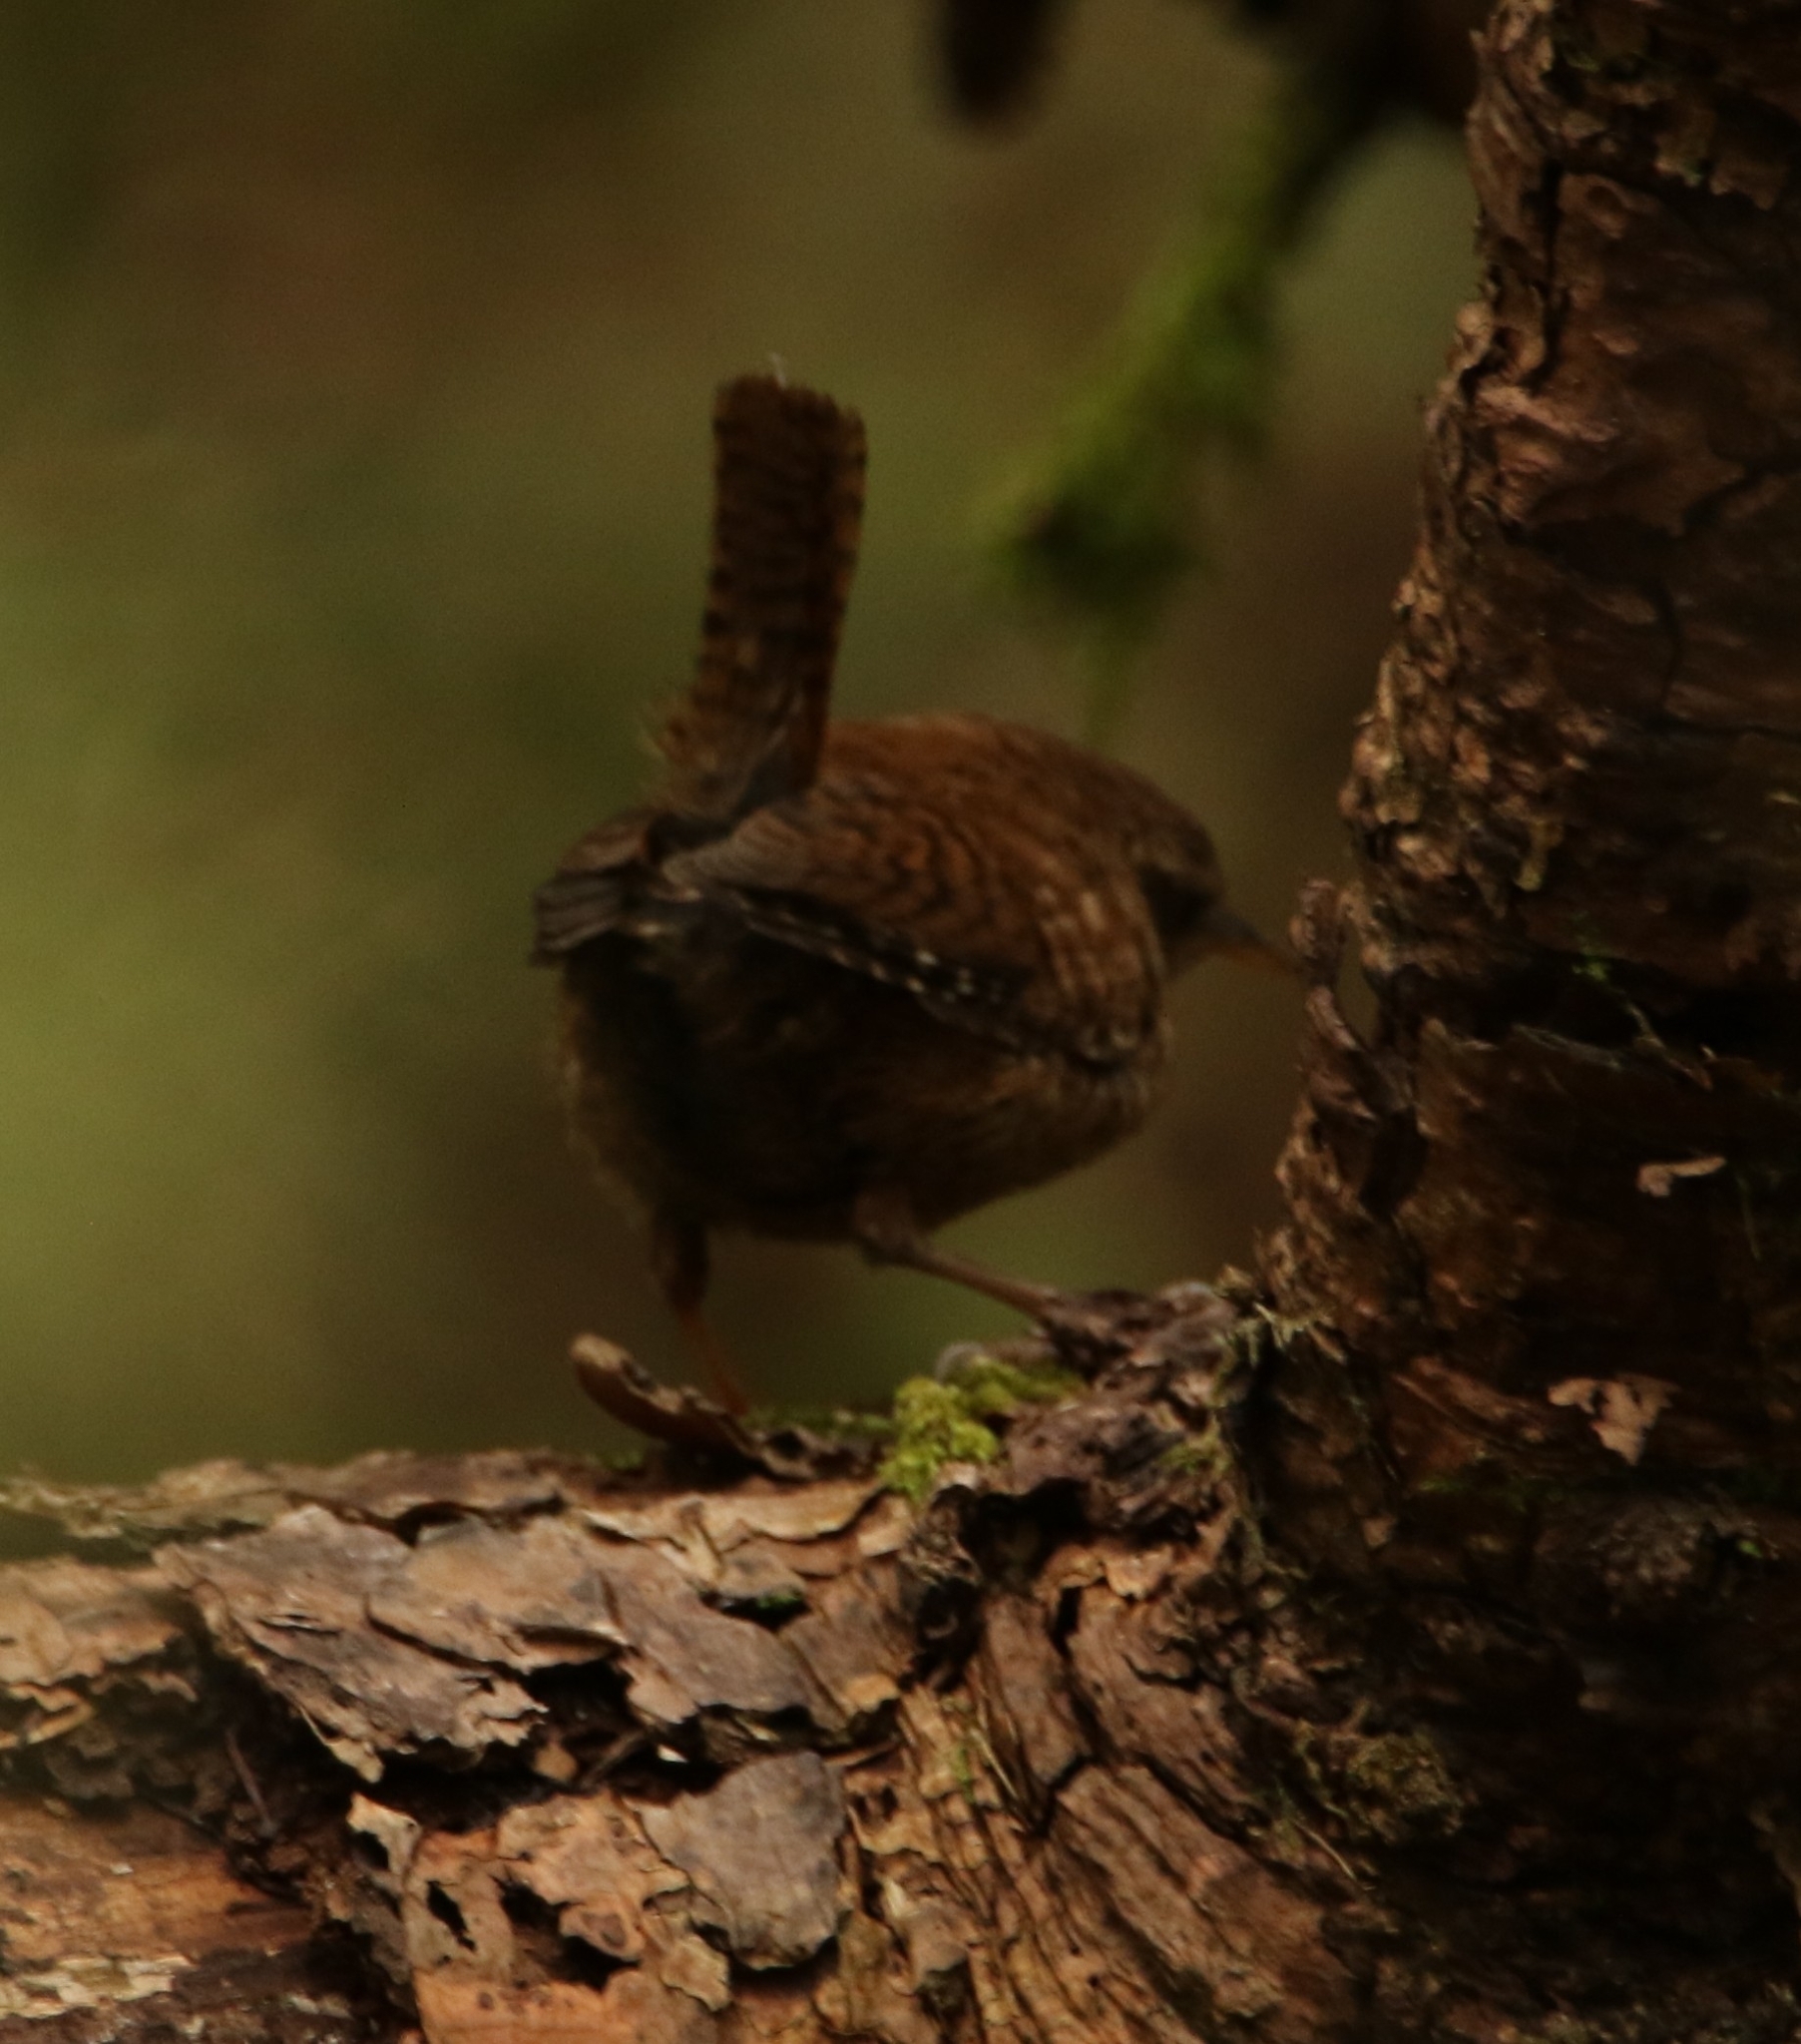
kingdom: Animalia
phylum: Chordata
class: Aves
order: Passeriformes
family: Troglodytidae
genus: Troglodytes
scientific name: Troglodytes troglodytes
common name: Eurasian wren
